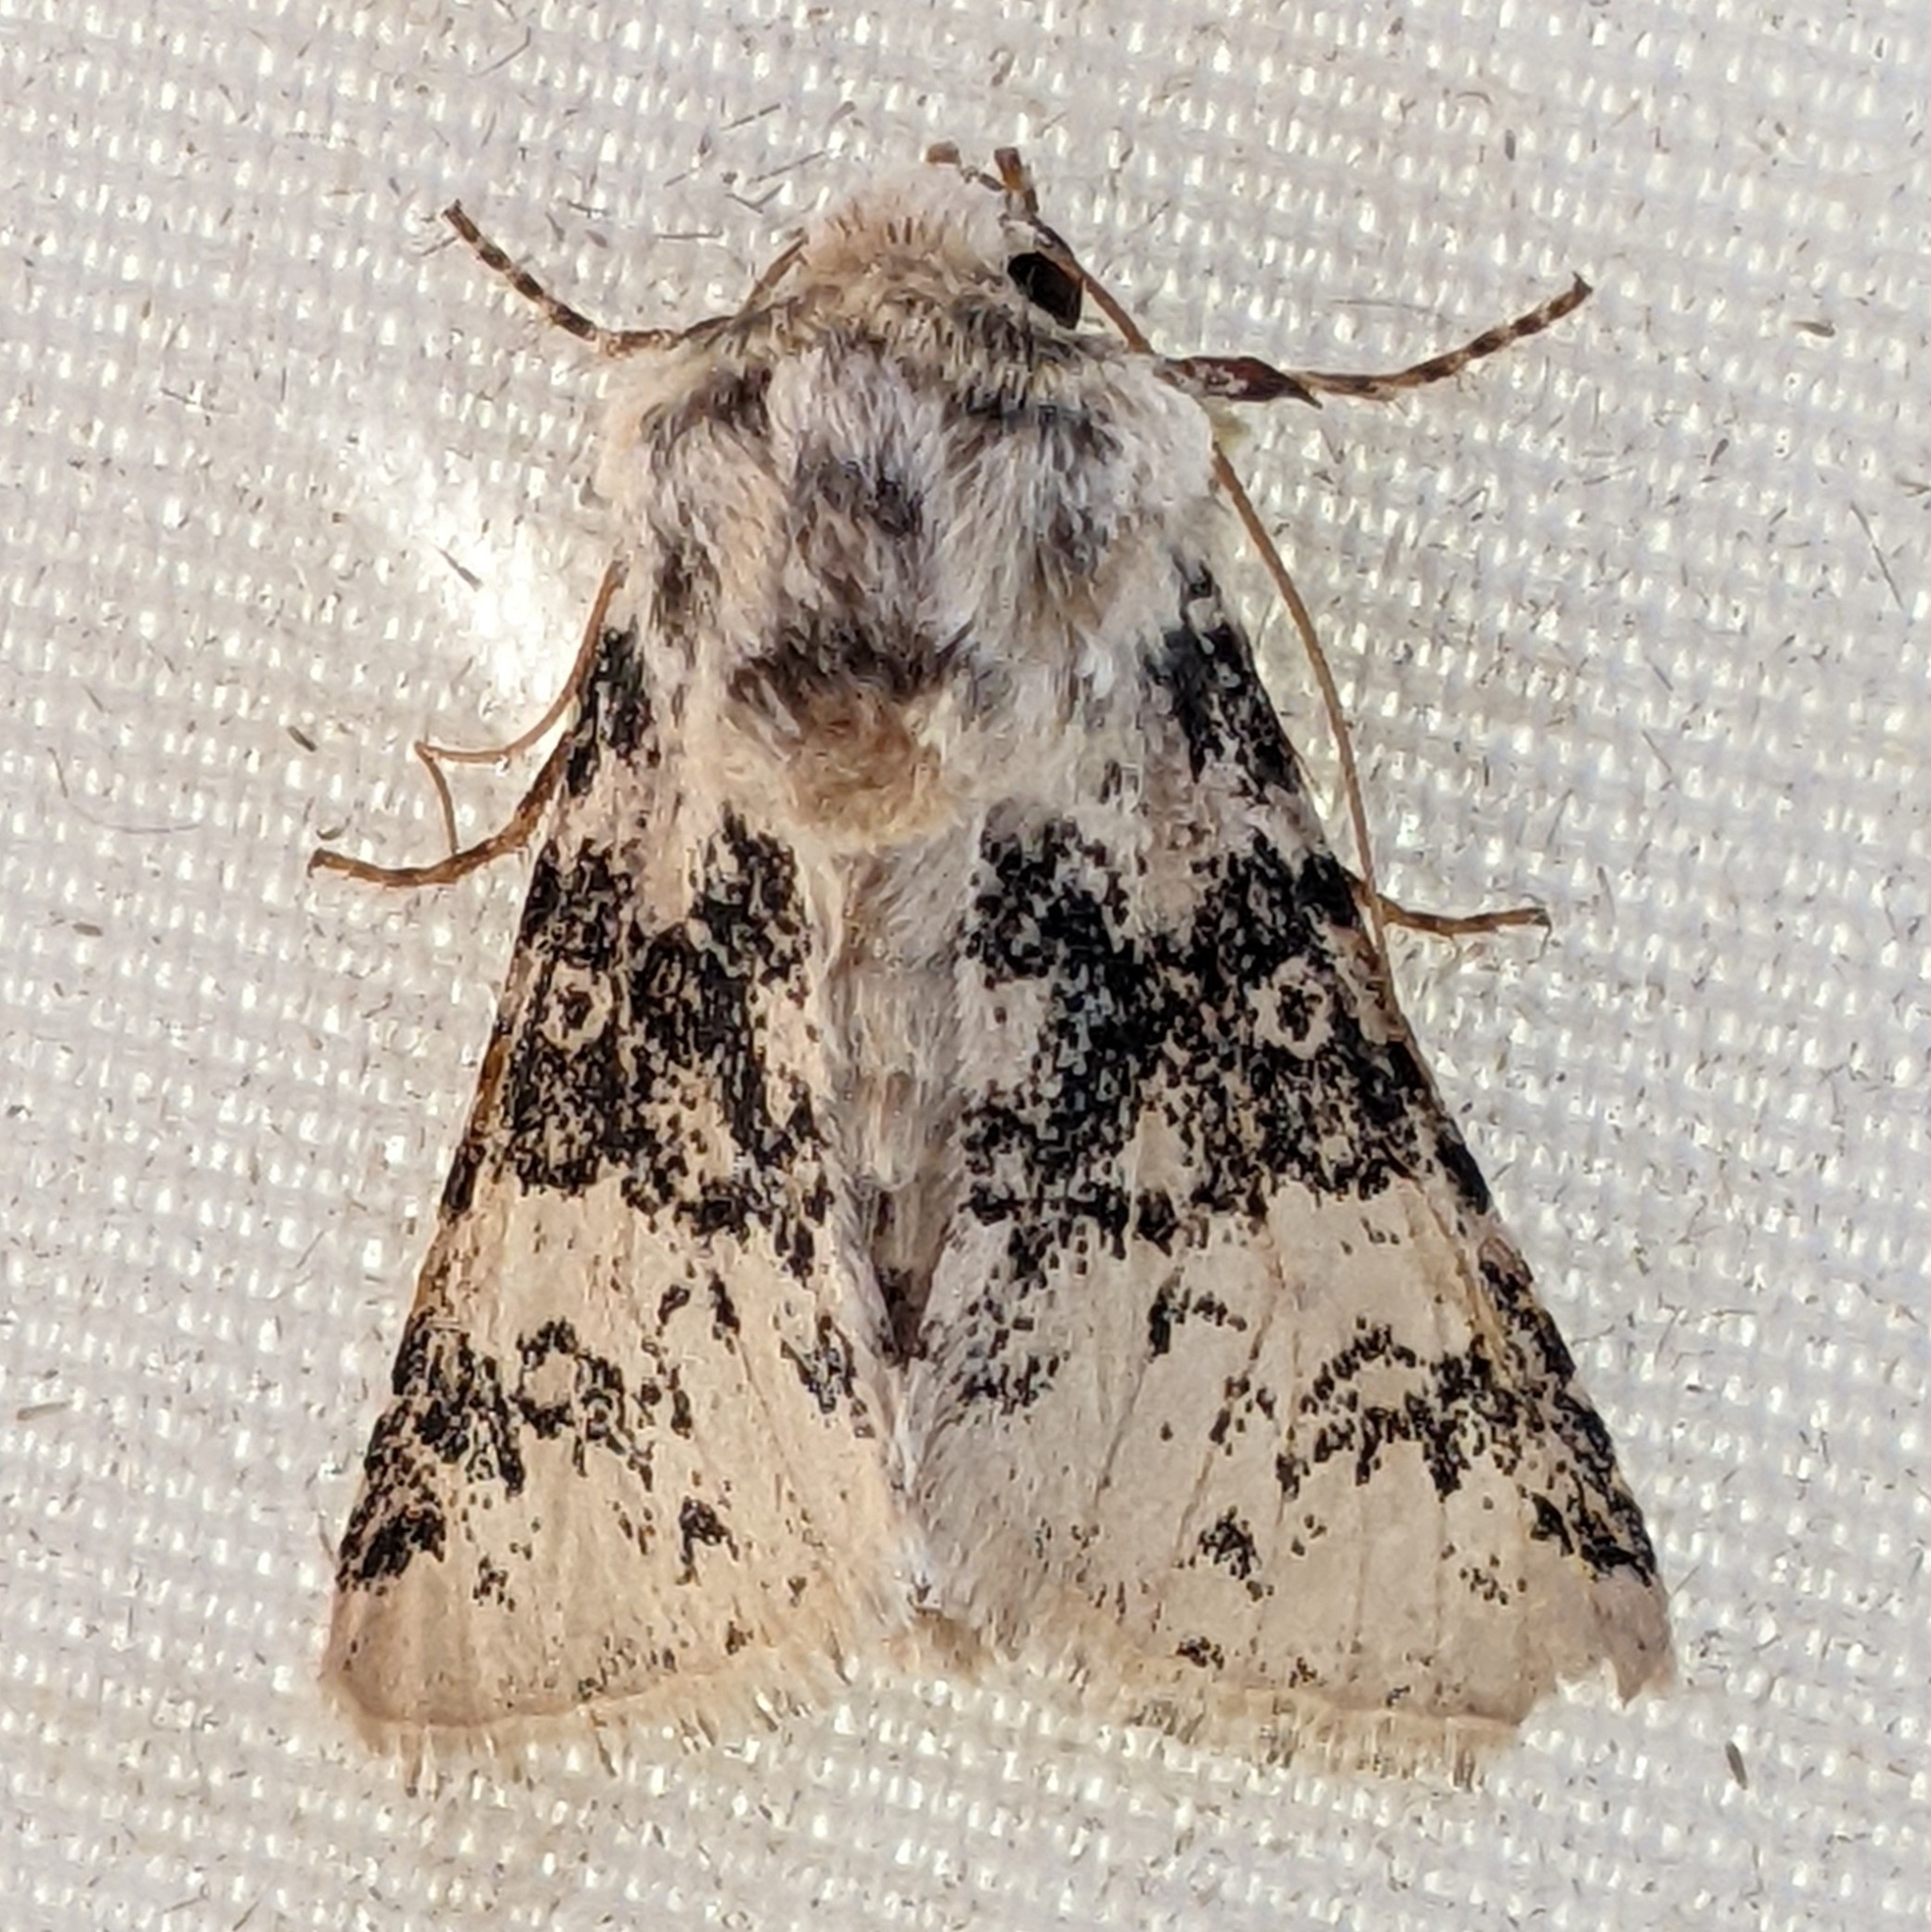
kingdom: Animalia
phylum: Arthropoda
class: Insecta
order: Lepidoptera
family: Noctuidae
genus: Unciella
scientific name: Unciella primula
